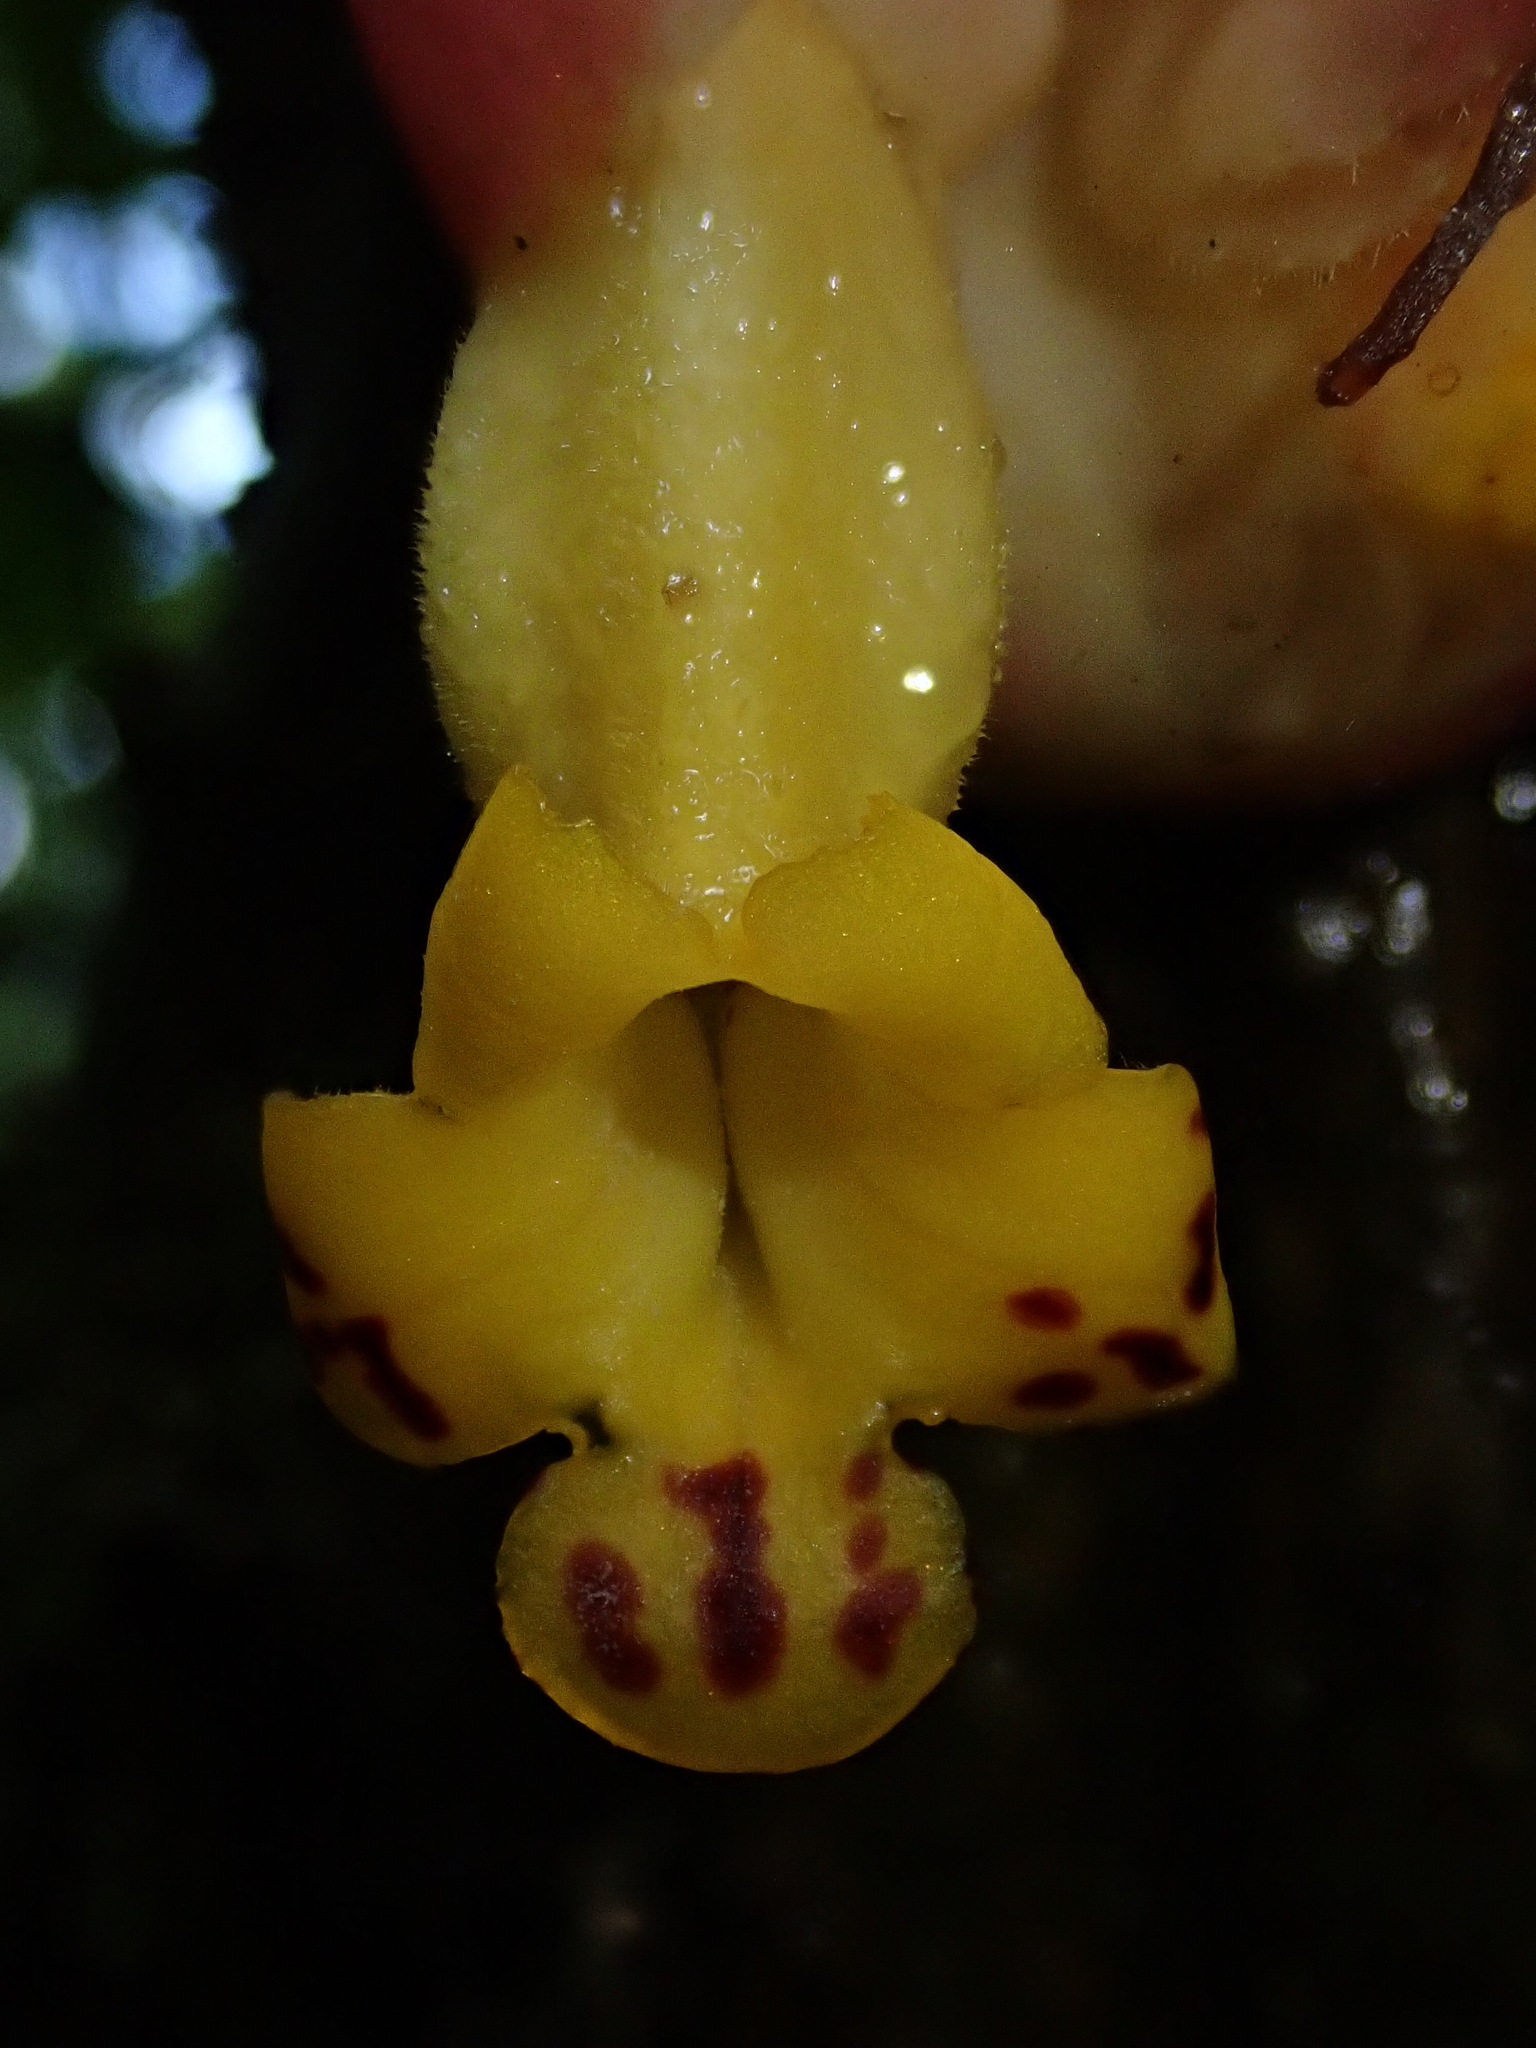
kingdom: Plantae
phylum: Tracheophyta
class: Magnoliopsida
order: Lamiales
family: Gesneriaceae
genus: Drymonia
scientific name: Drymonia coccinea
